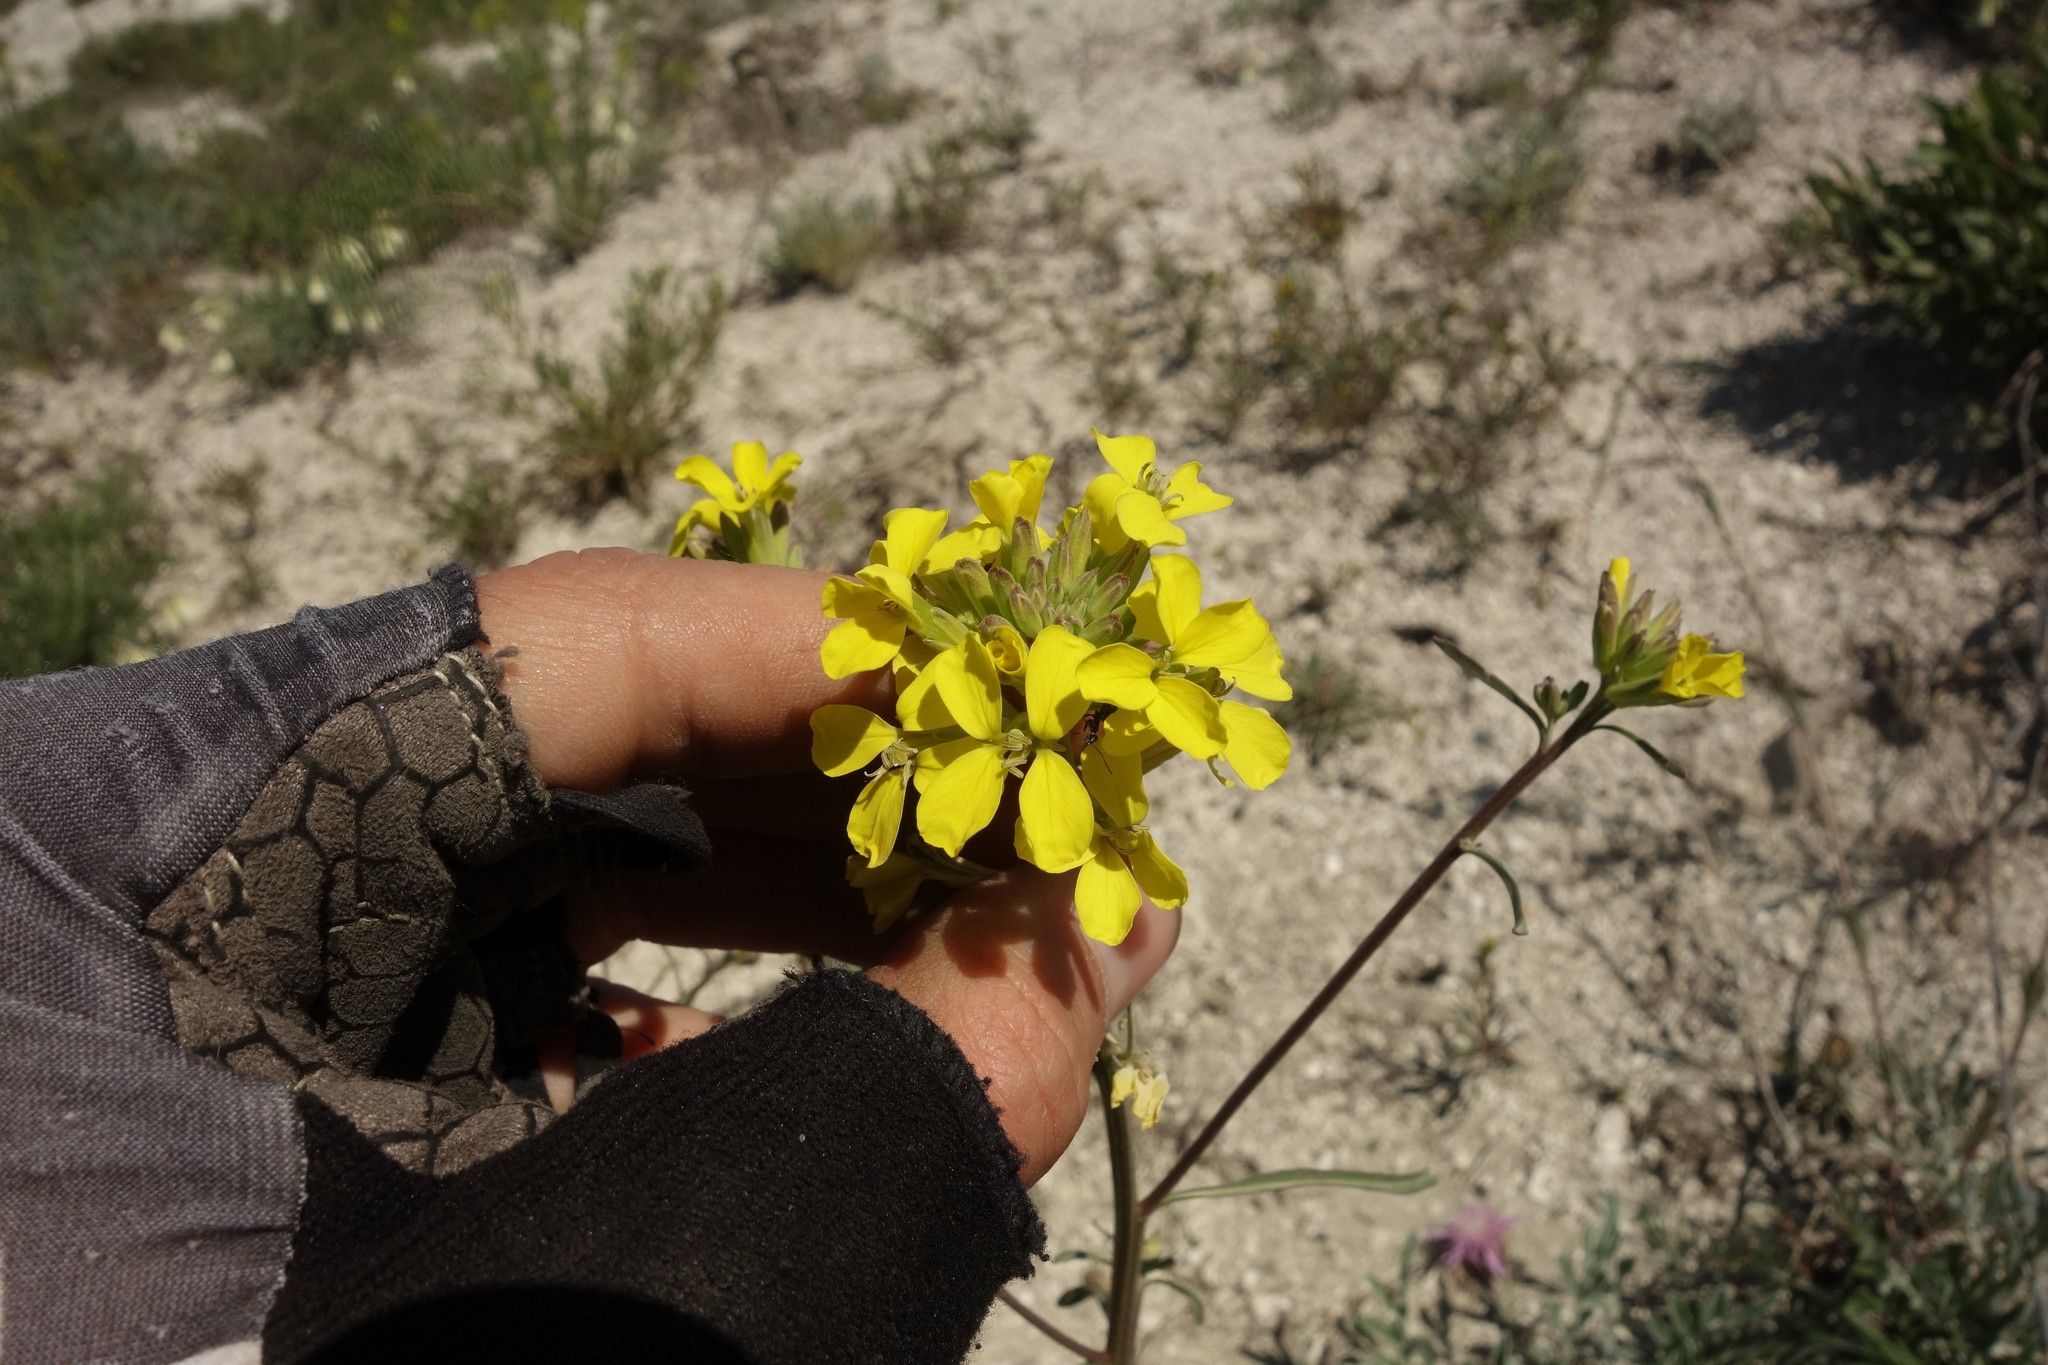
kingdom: Plantae
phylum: Tracheophyta
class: Magnoliopsida
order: Brassicales
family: Brassicaceae
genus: Erysimum
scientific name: Erysimum diffusum
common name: Diffuse wallflower
